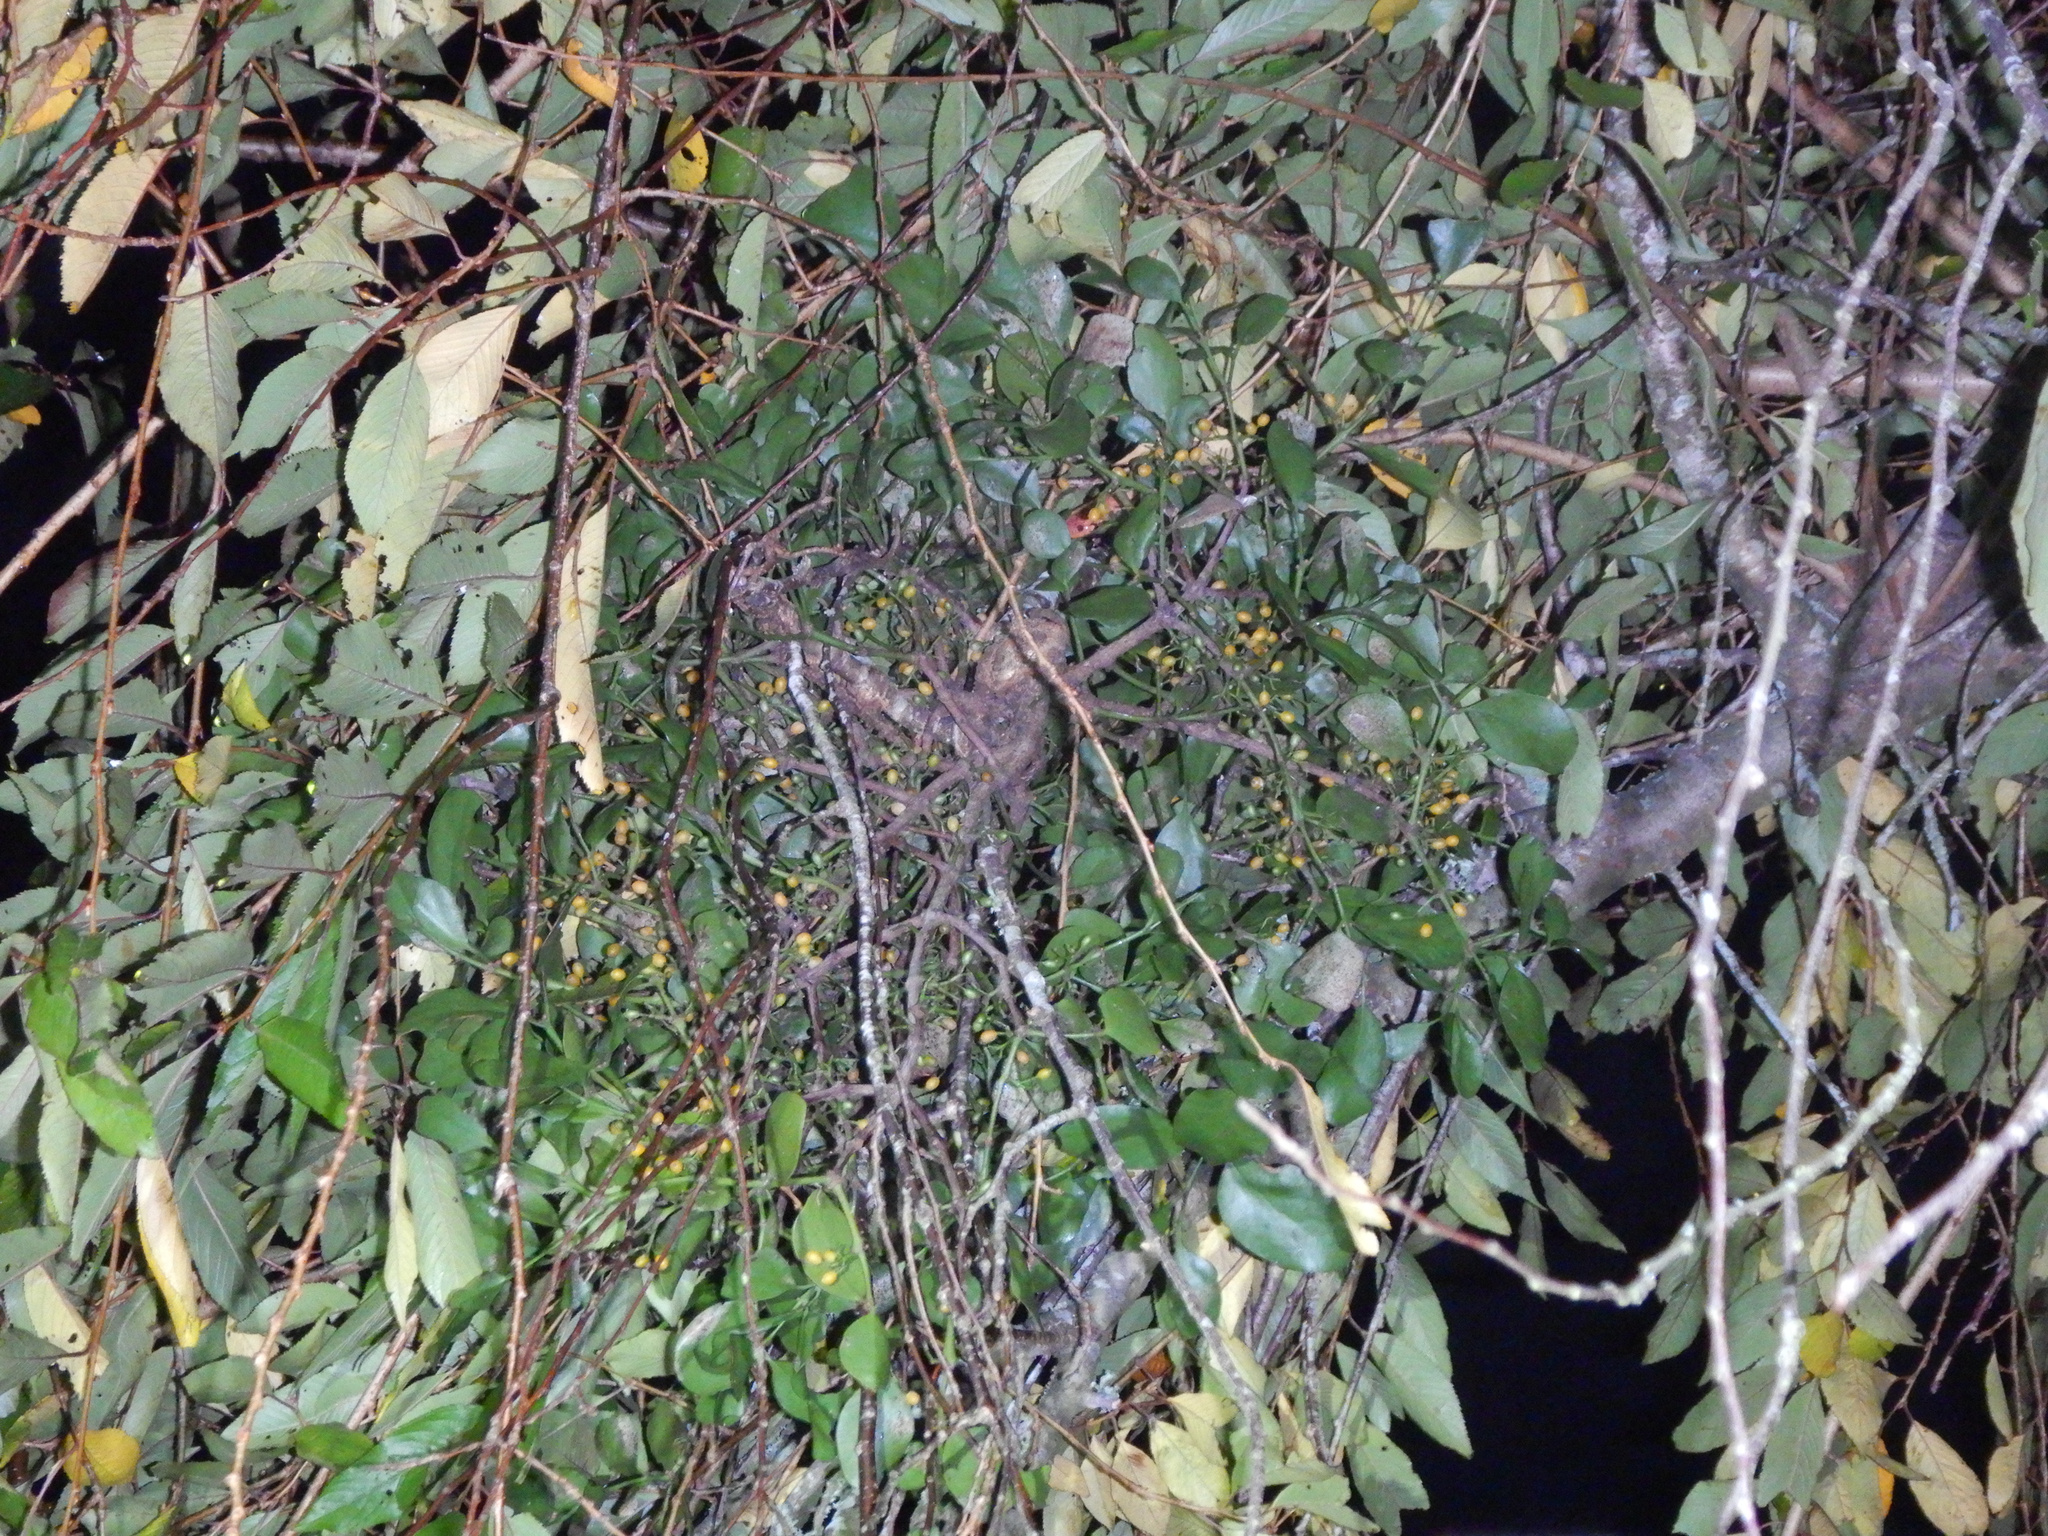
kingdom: Plantae
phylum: Tracheophyta
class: Magnoliopsida
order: Santalales
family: Loranthaceae
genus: Ileostylus
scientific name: Ileostylus micranthus
